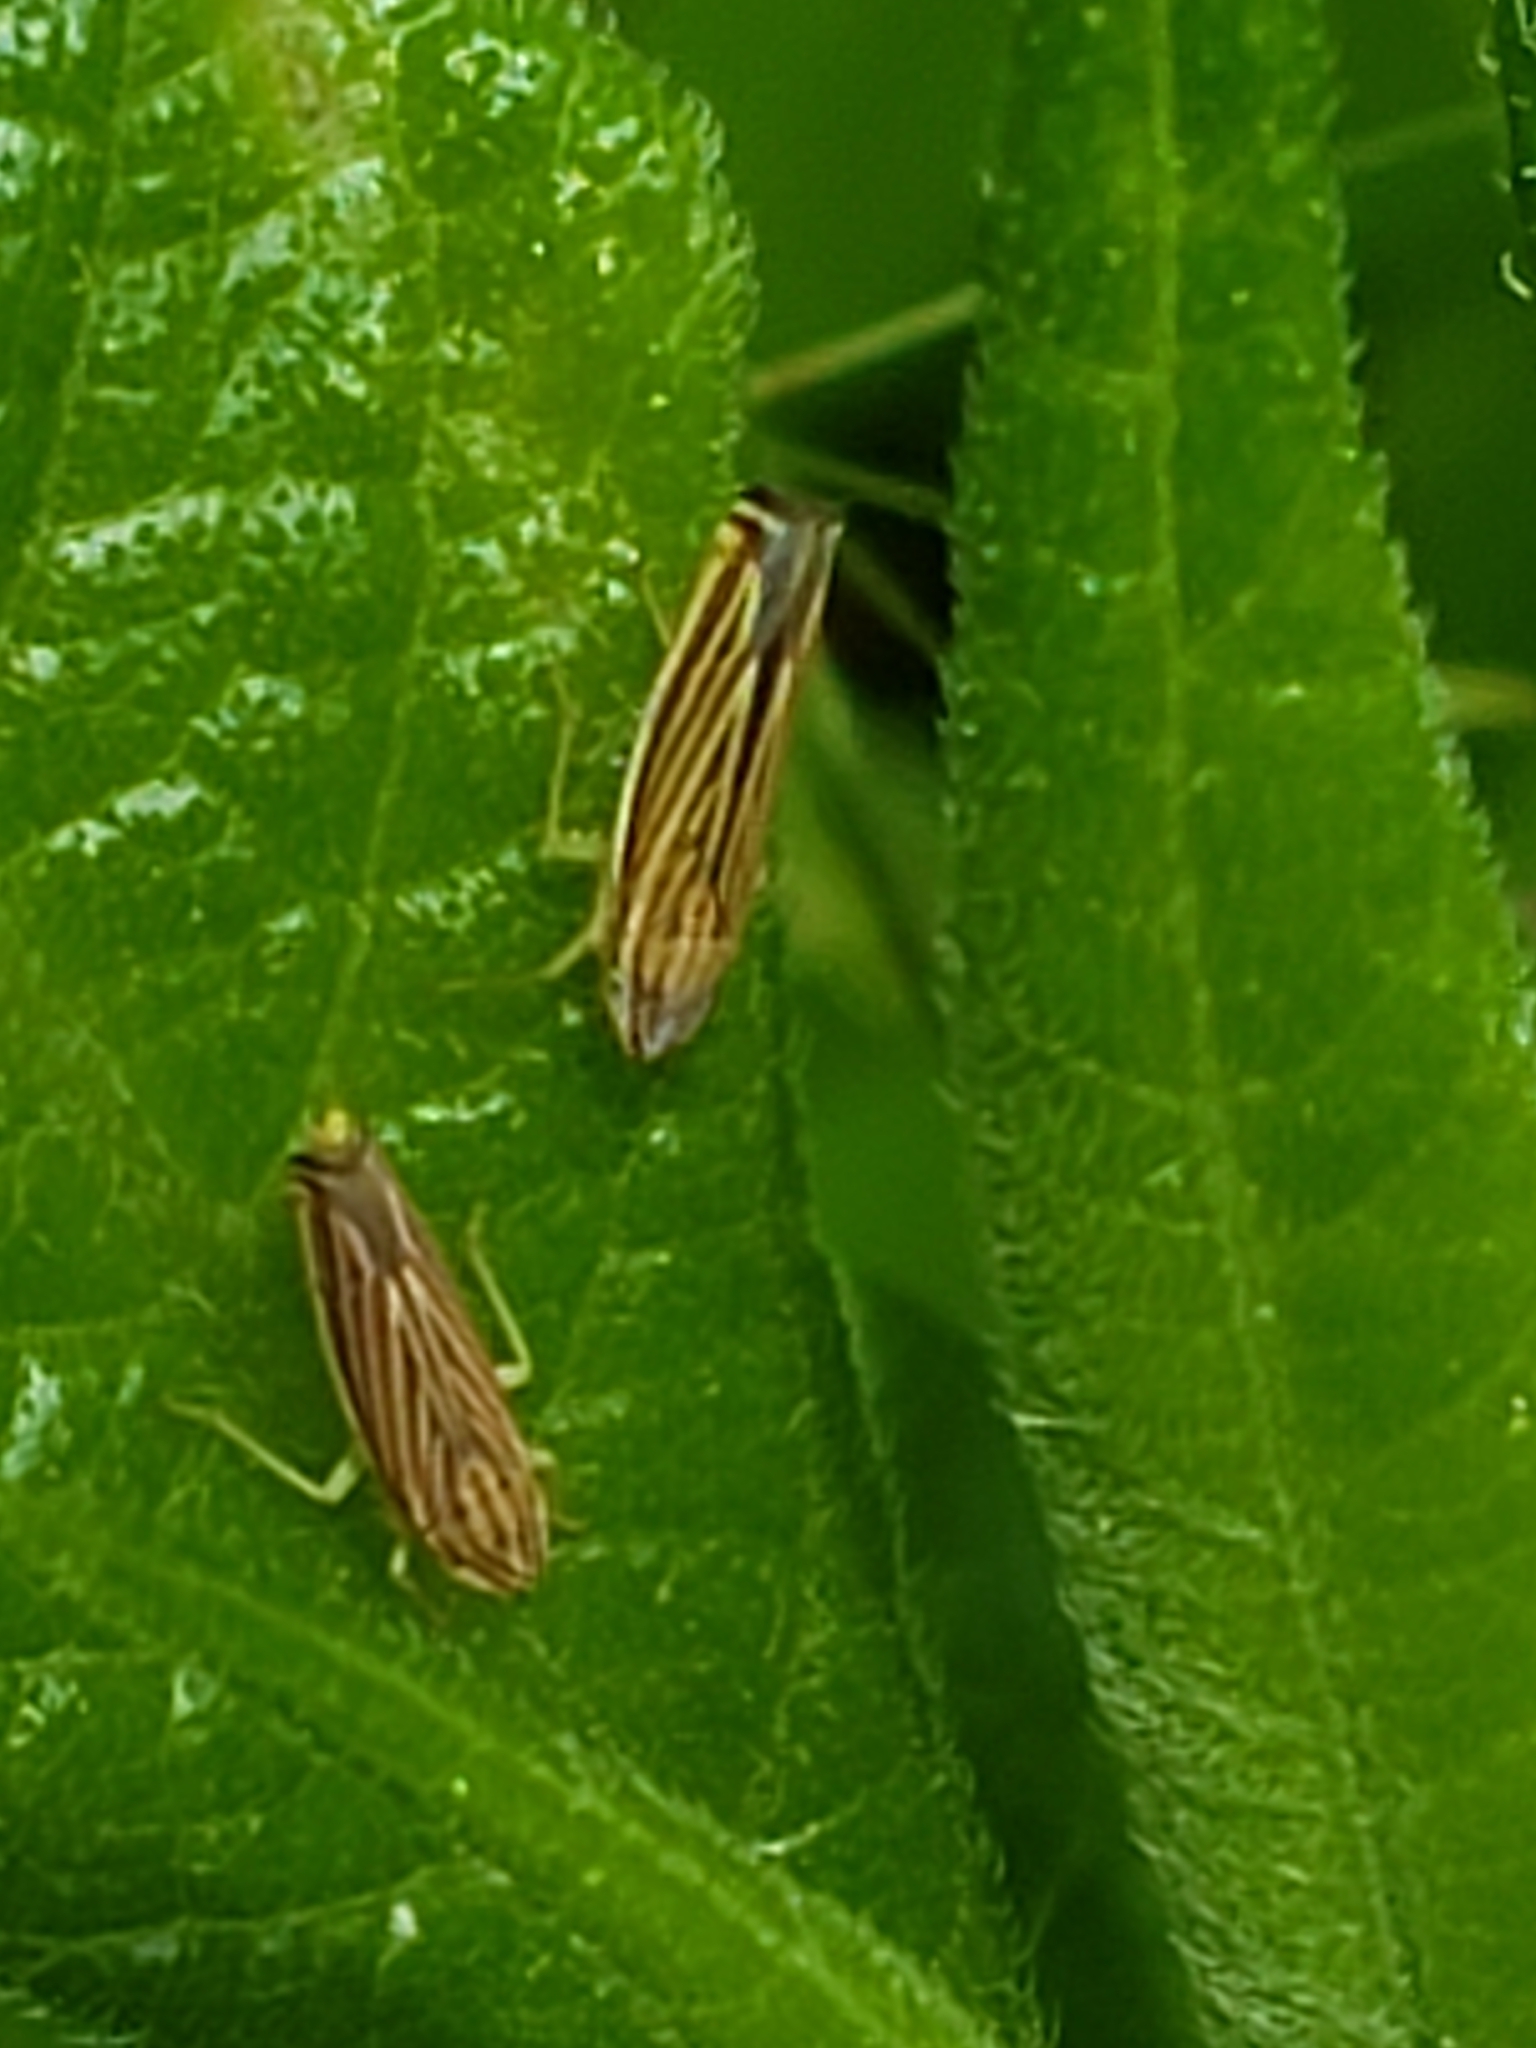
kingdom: Animalia
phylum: Arthropoda
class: Insecta
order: Hemiptera
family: Cicadellidae
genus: Sibovia
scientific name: Sibovia occatoria
